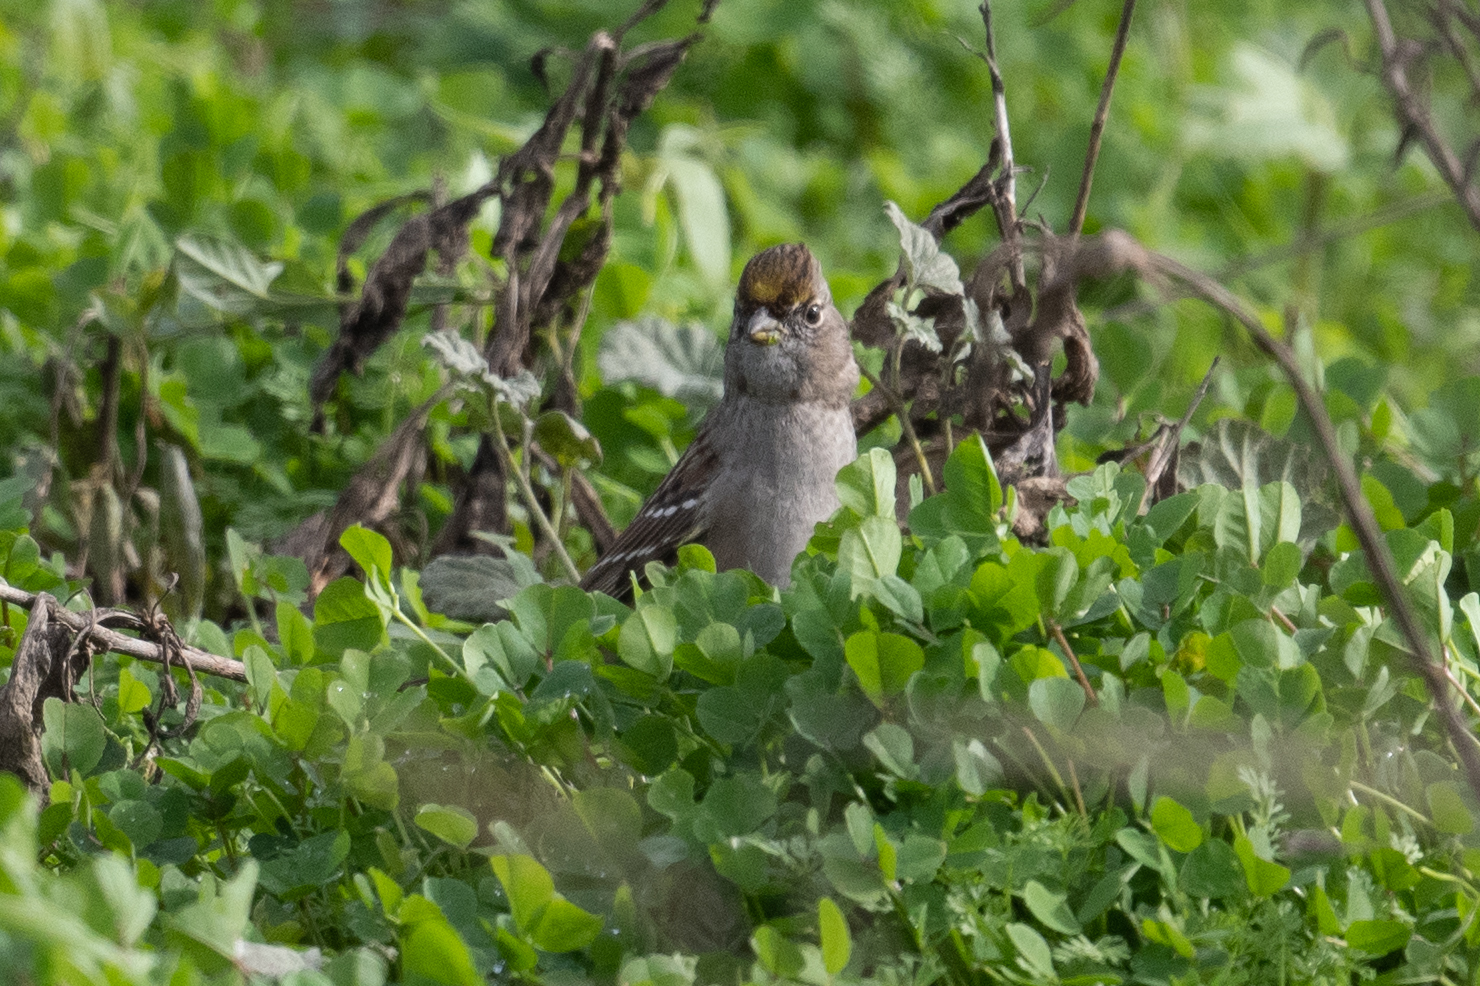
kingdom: Animalia
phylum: Chordata
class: Aves
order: Passeriformes
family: Passerellidae
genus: Zonotrichia
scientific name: Zonotrichia atricapilla
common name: Golden-crowned sparrow
